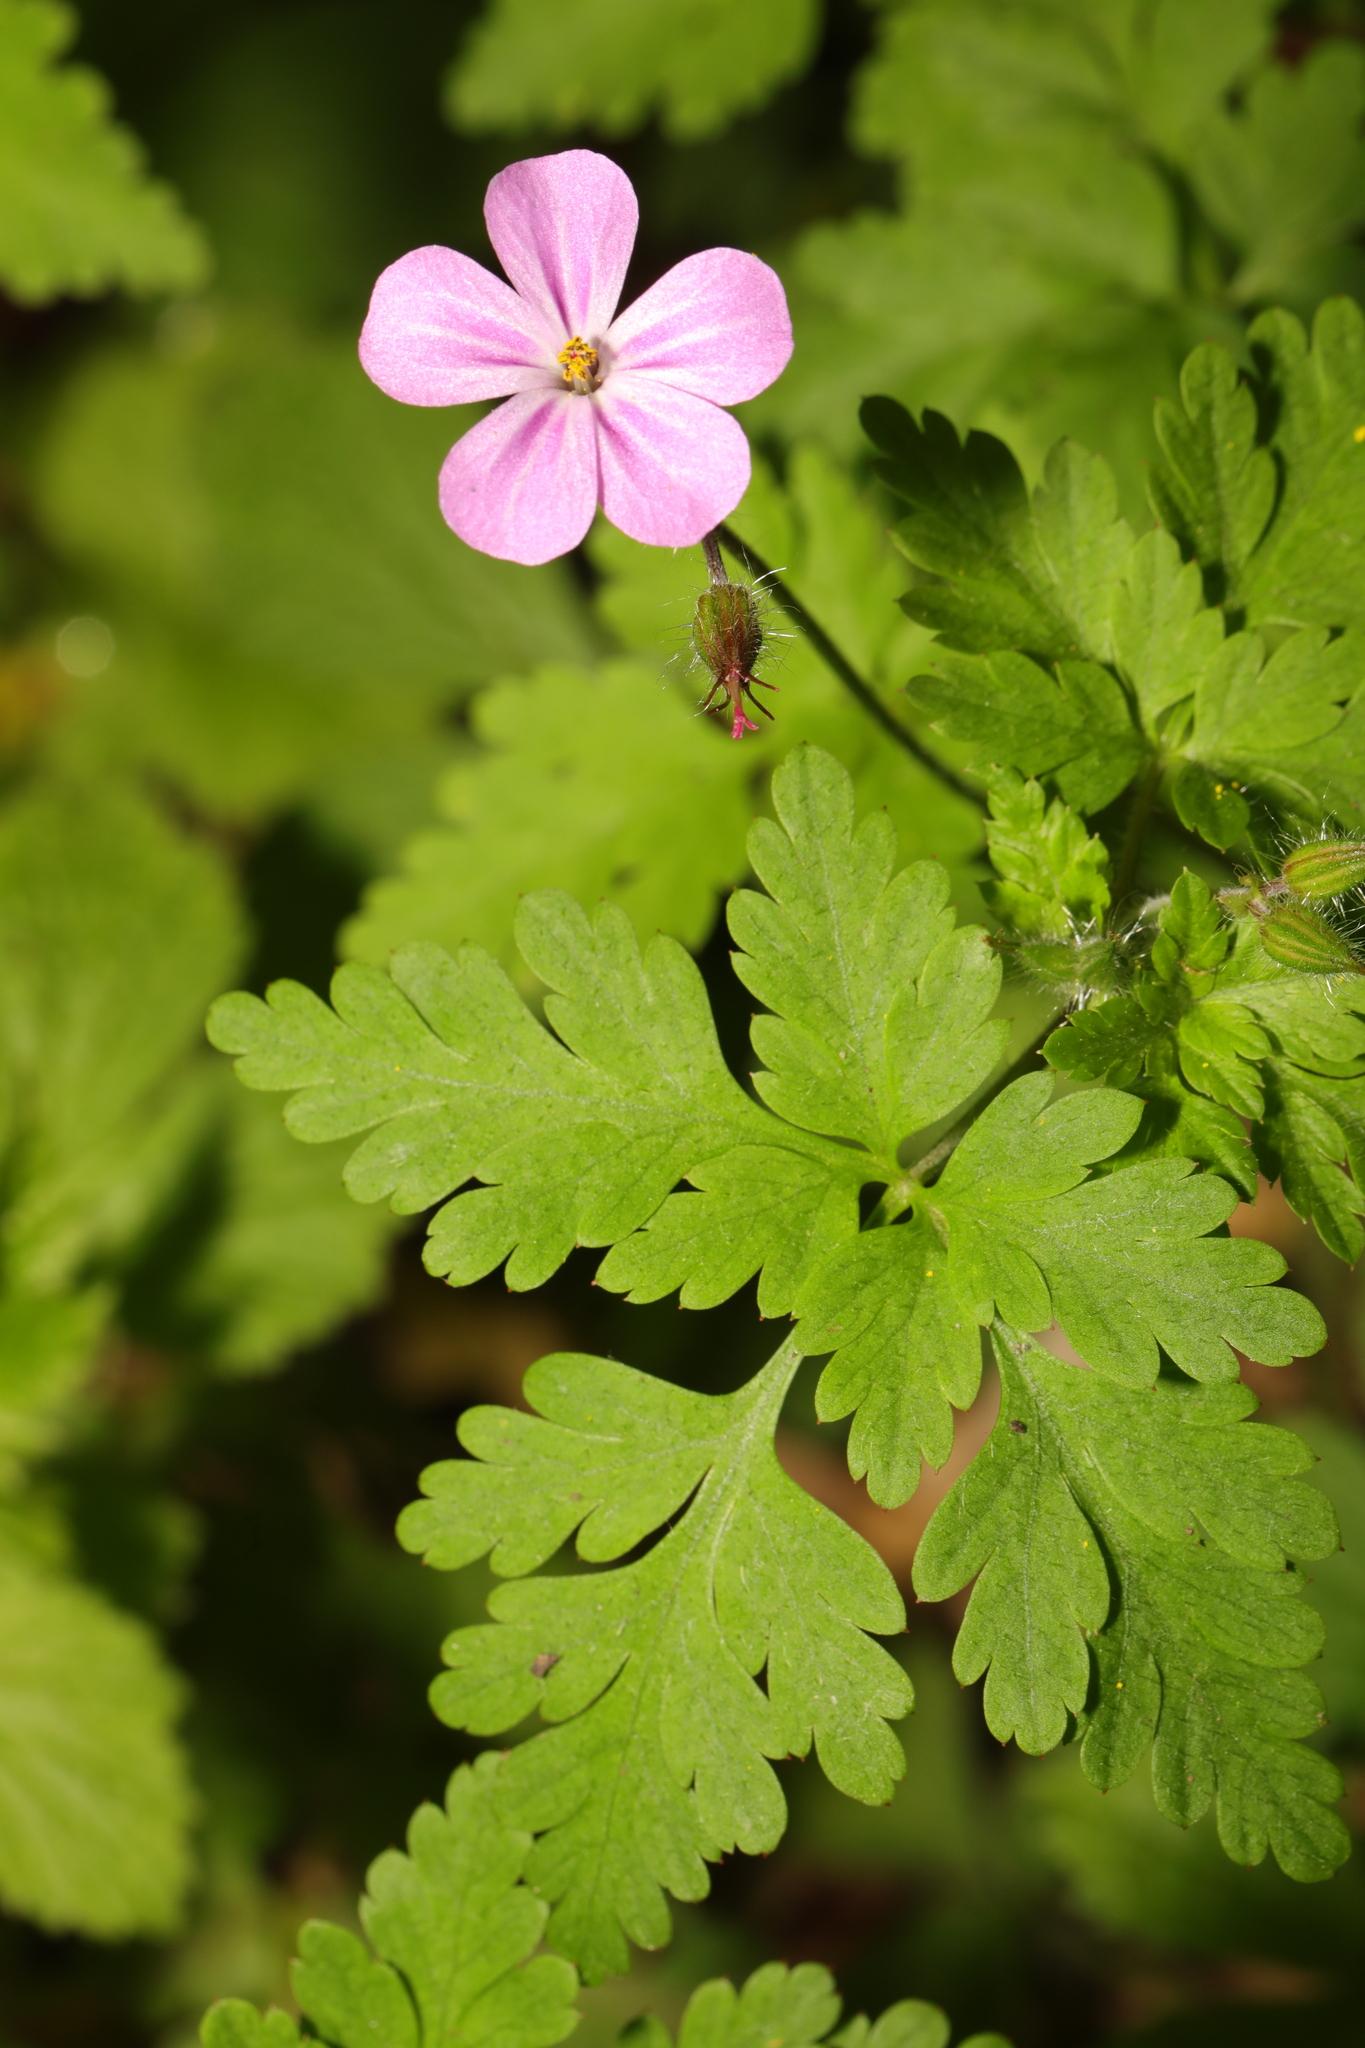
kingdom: Plantae
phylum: Tracheophyta
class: Magnoliopsida
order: Geraniales
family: Geraniaceae
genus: Geranium
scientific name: Geranium robertianum
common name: Herb-robert
